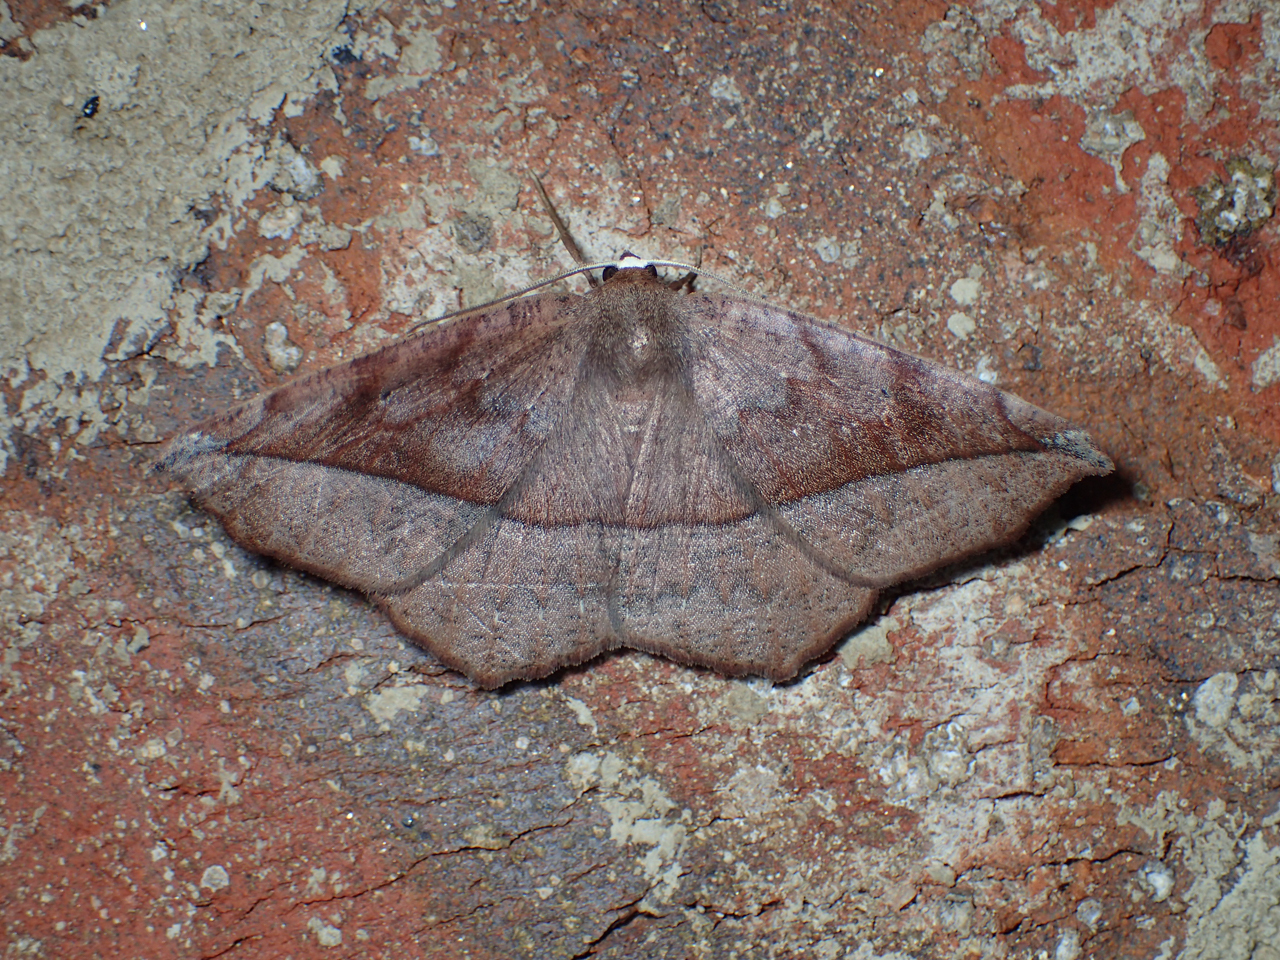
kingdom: Animalia
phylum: Arthropoda
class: Insecta
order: Lepidoptera
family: Geometridae
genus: Eutrapela
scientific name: Eutrapela clemataria
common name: Curved-toothed geometer
